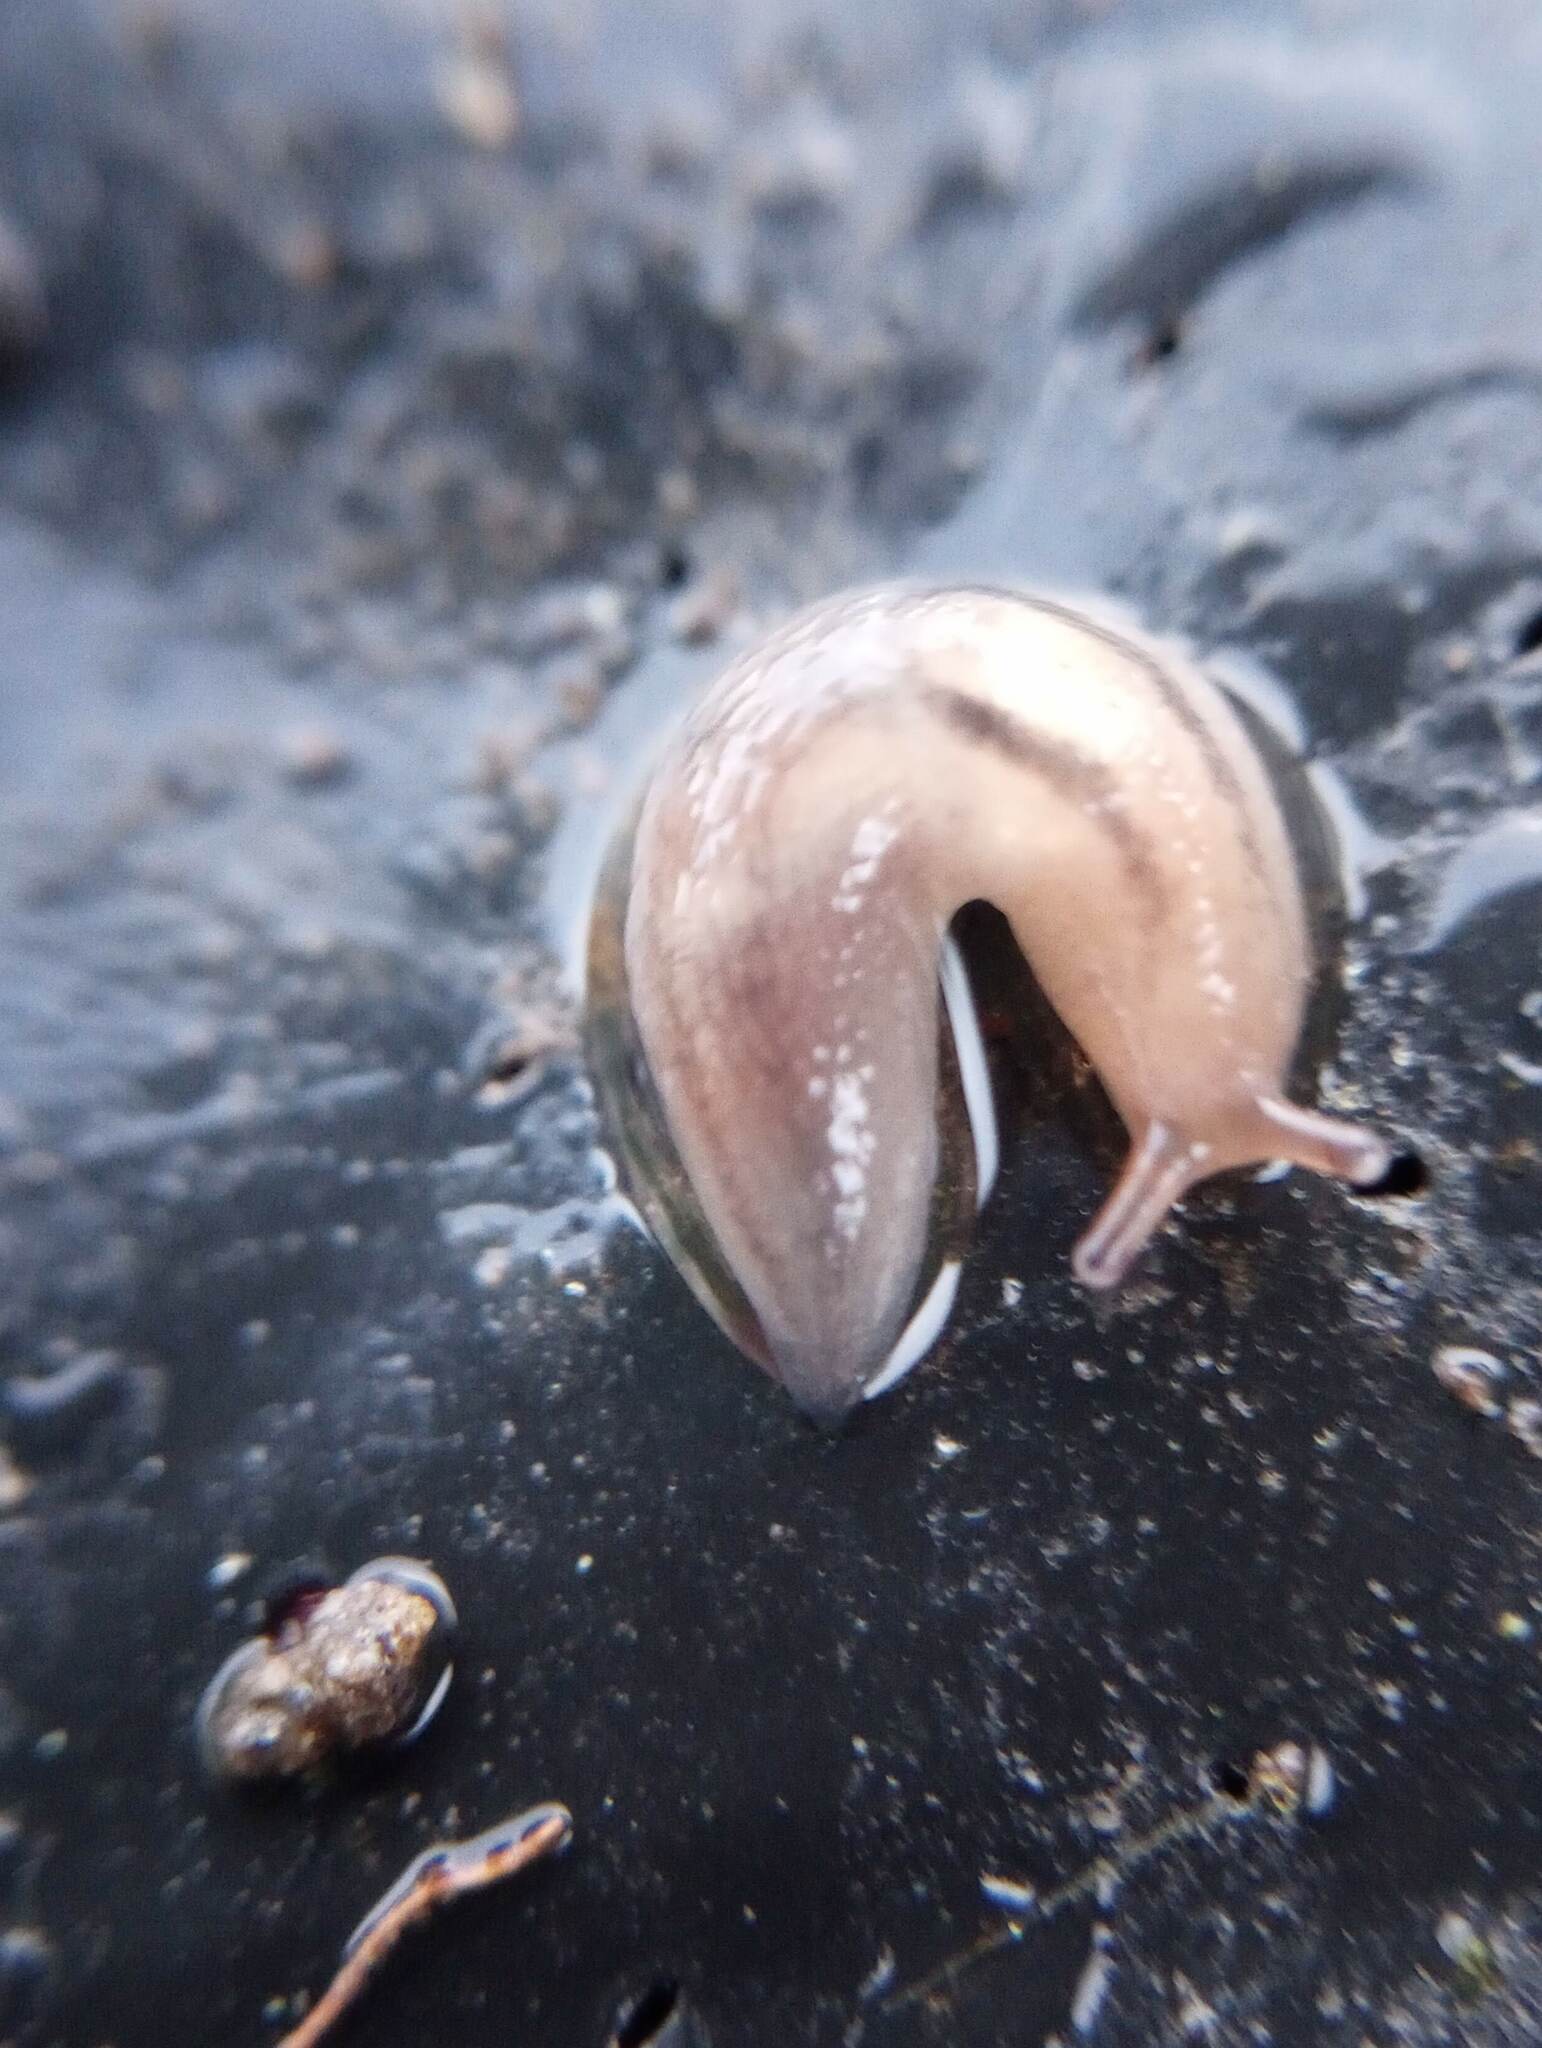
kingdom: Animalia
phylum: Mollusca
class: Gastropoda
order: Stylommatophora
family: Limacidae
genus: Ambigolimax
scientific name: Ambigolimax
